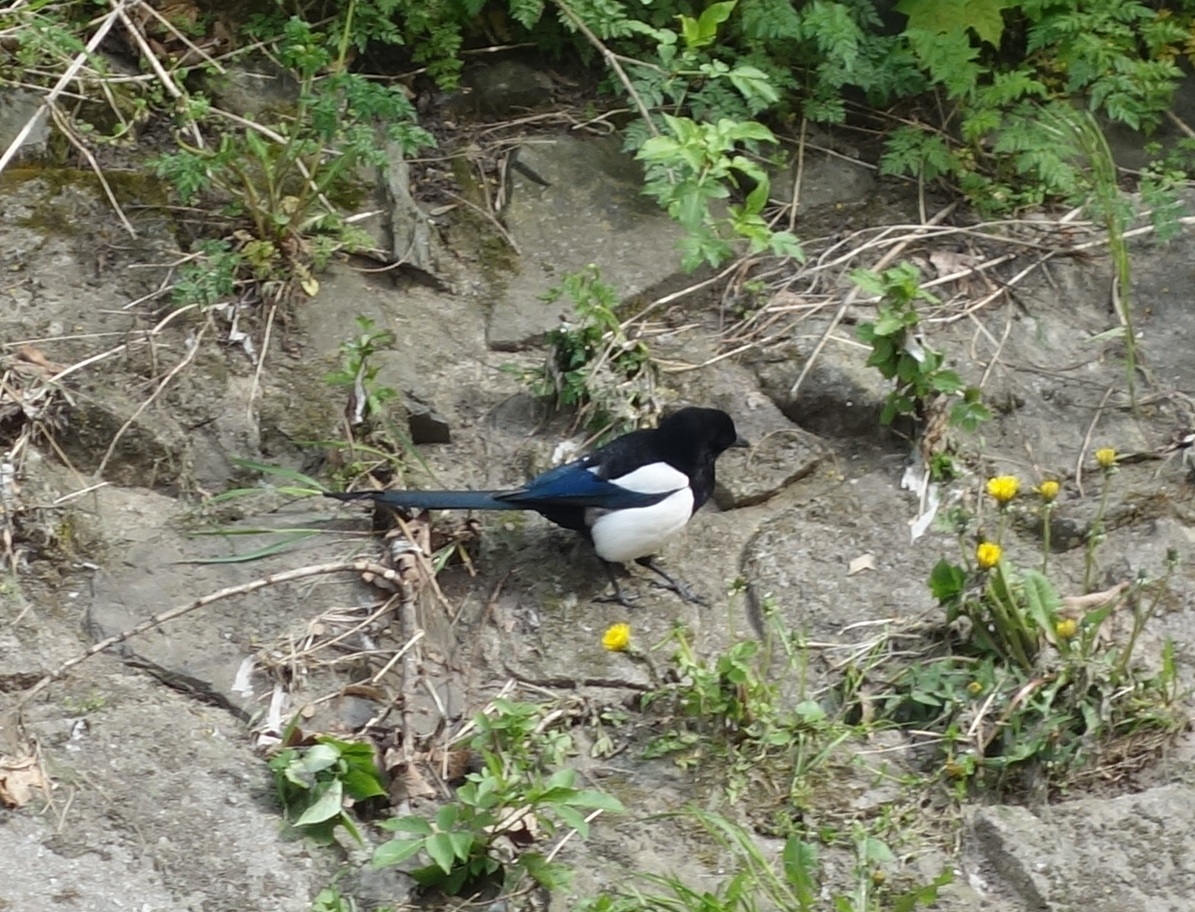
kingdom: Animalia
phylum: Chordata
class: Aves
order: Passeriformes
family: Corvidae
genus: Pica
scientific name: Pica pica
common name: Eurasian magpie
